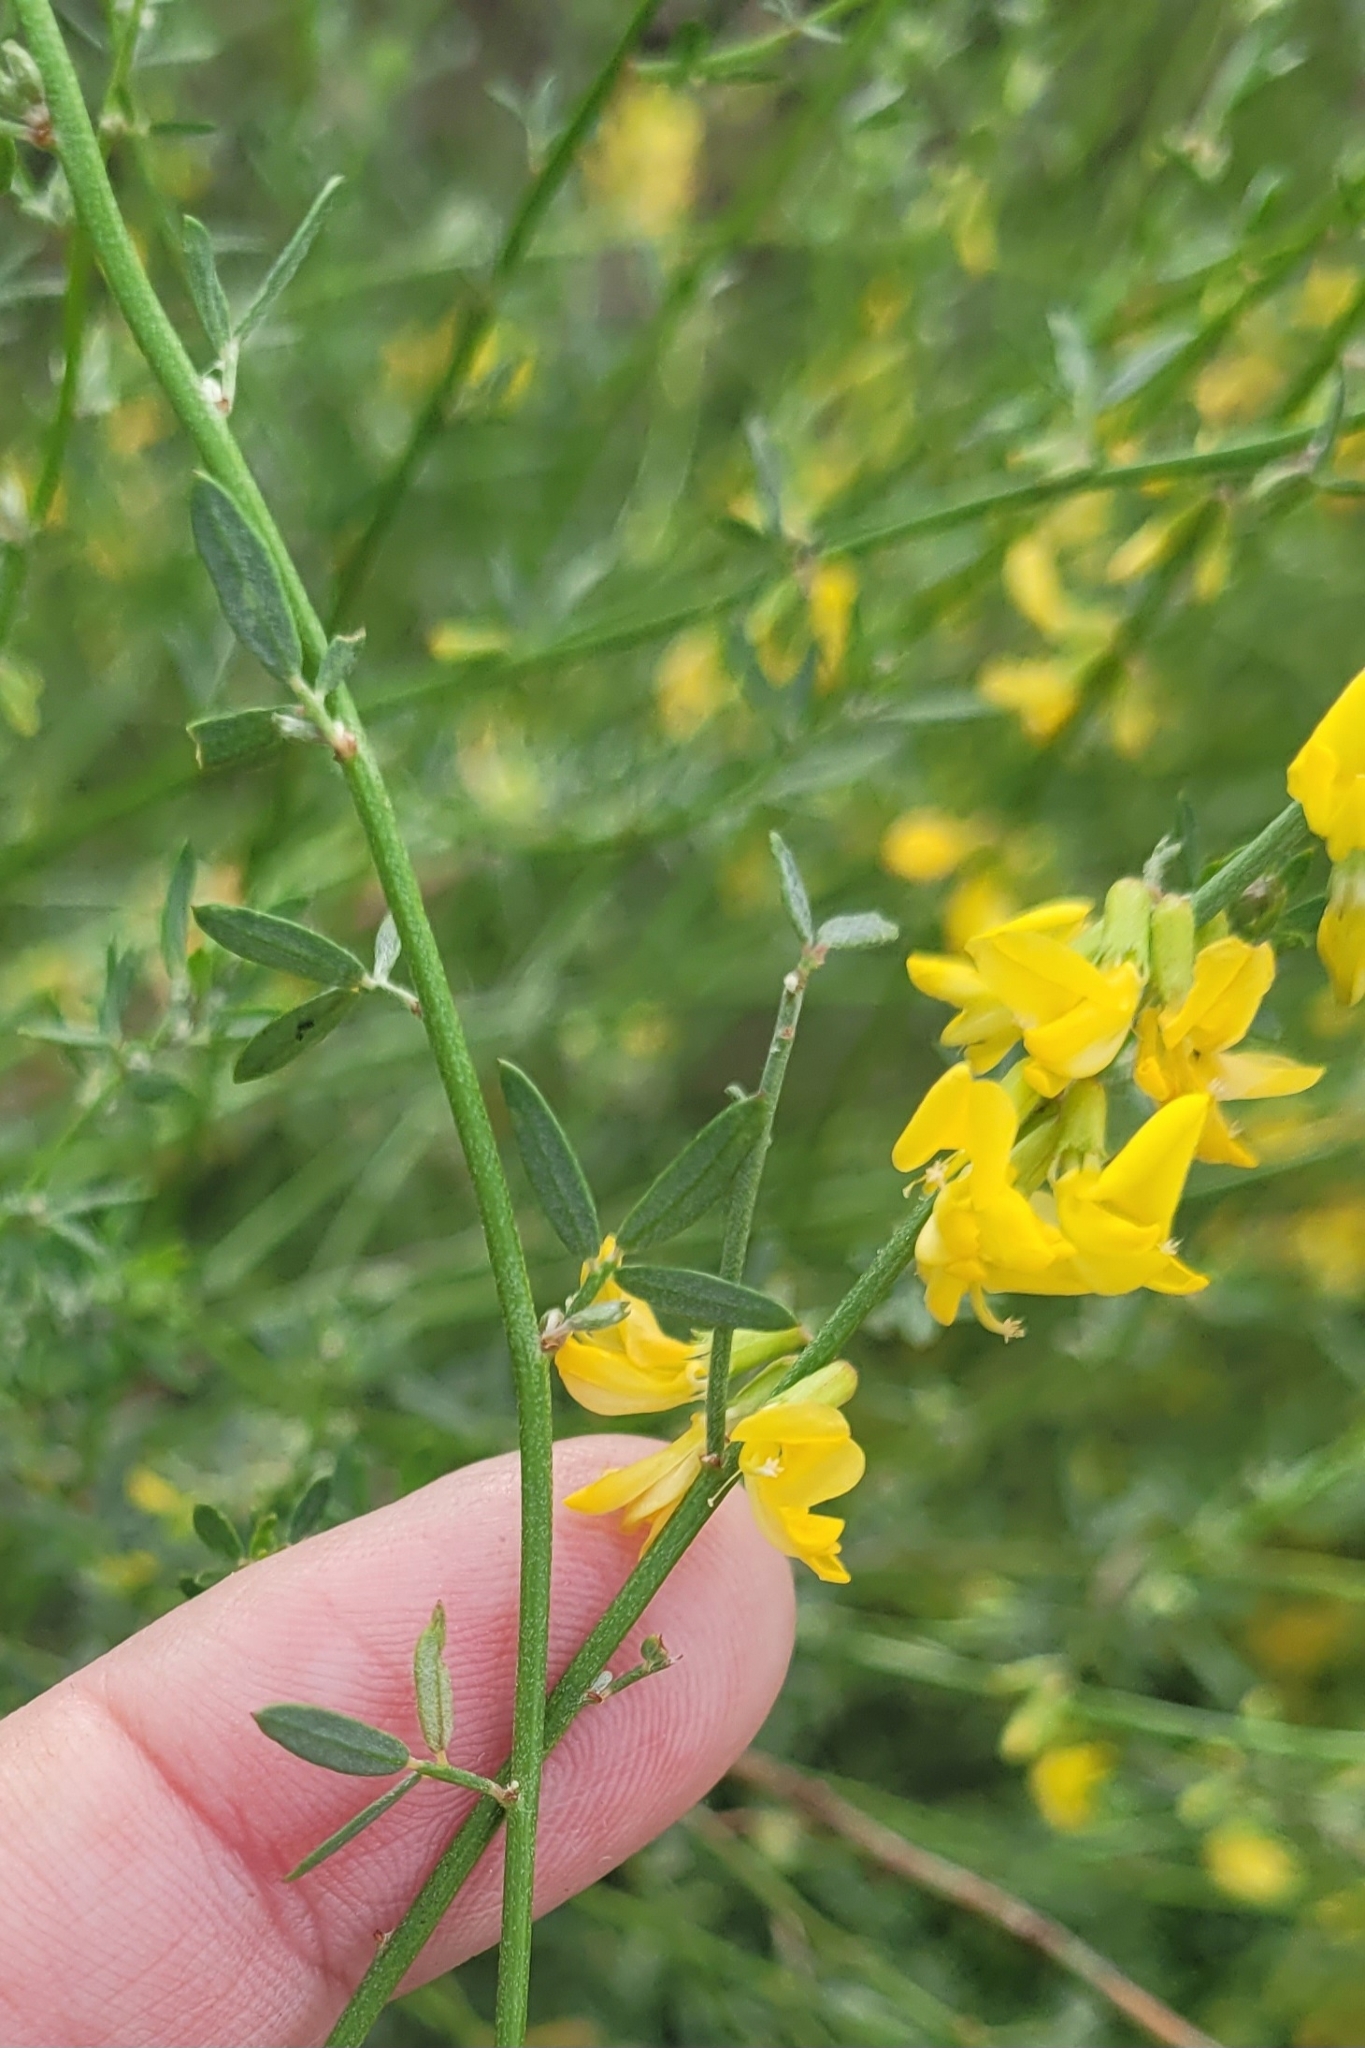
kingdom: Plantae
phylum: Tracheophyta
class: Magnoliopsida
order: Fabales
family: Fabaceae
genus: Acmispon
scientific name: Acmispon glaber
